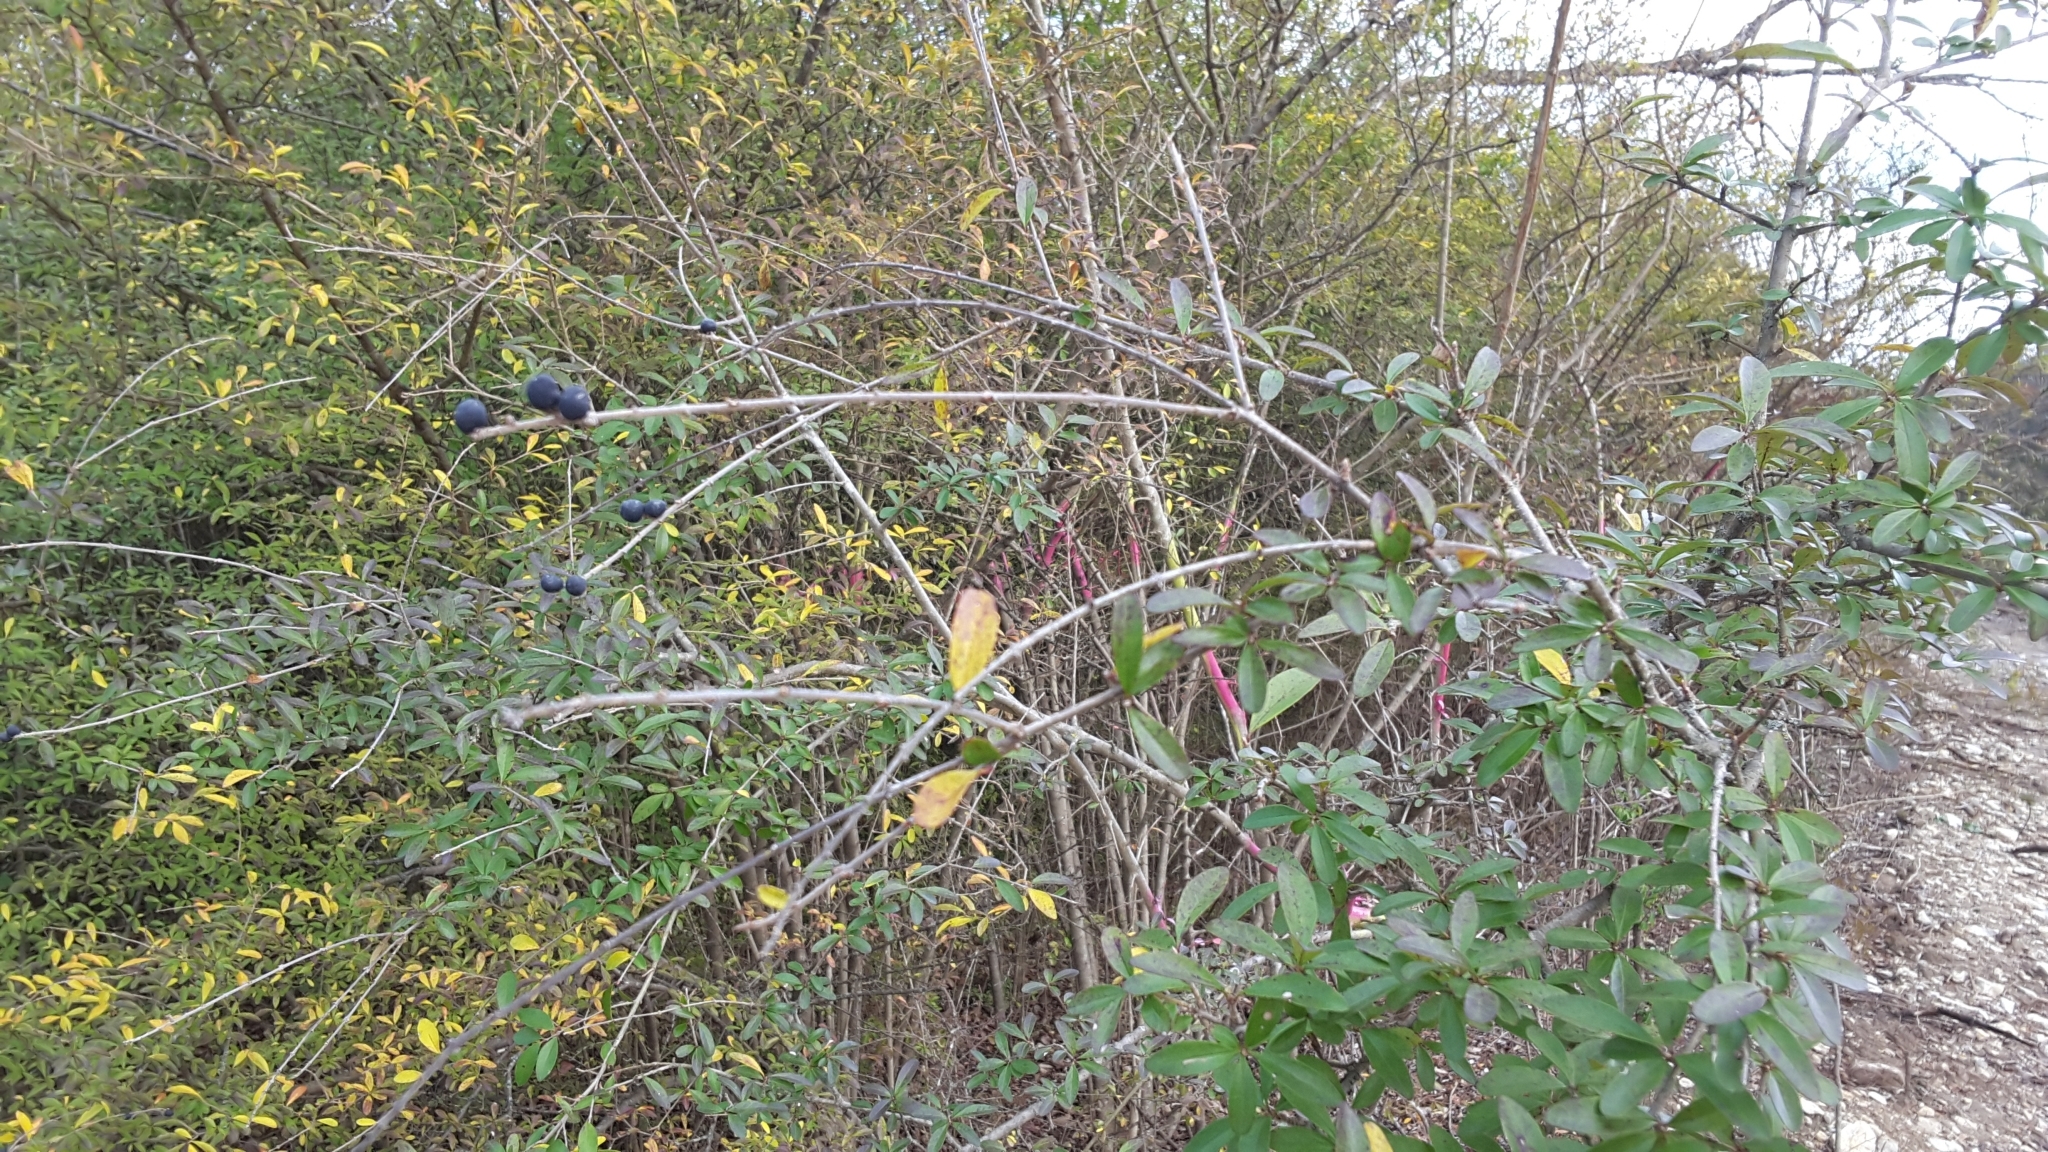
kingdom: Plantae
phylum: Tracheophyta
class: Magnoliopsida
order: Lamiales
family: Oleaceae
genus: Ligustrum
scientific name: Ligustrum quihoui
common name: Waxyleaf privet
